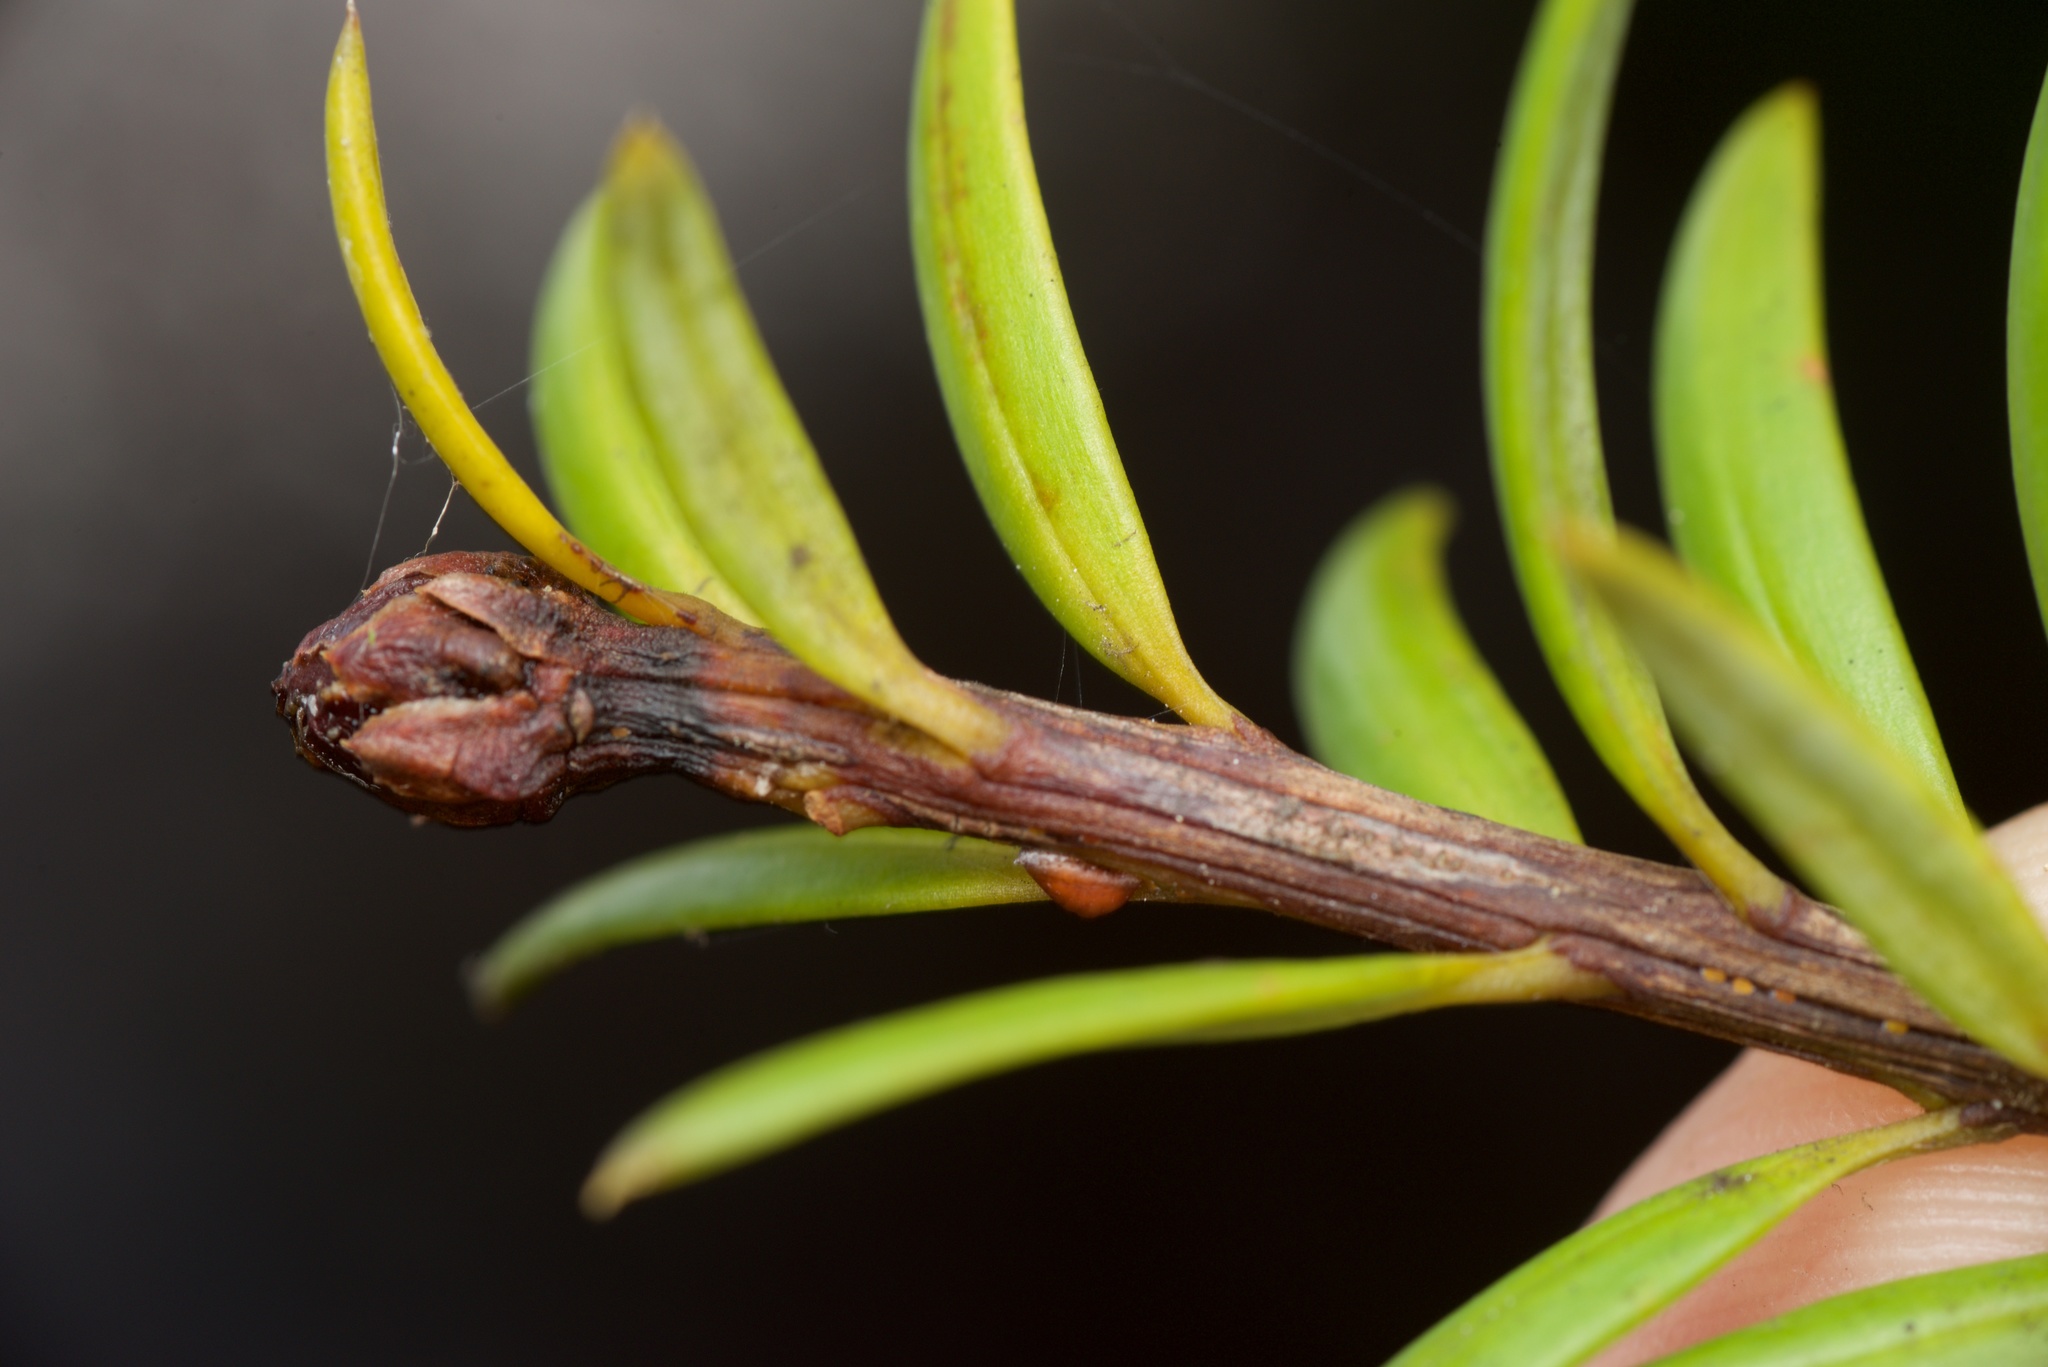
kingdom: Plantae
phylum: Tracheophyta
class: Pinopsida
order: Pinales
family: Podocarpaceae
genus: Podocarpus
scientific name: Podocarpus laetus
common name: Hall's totara
